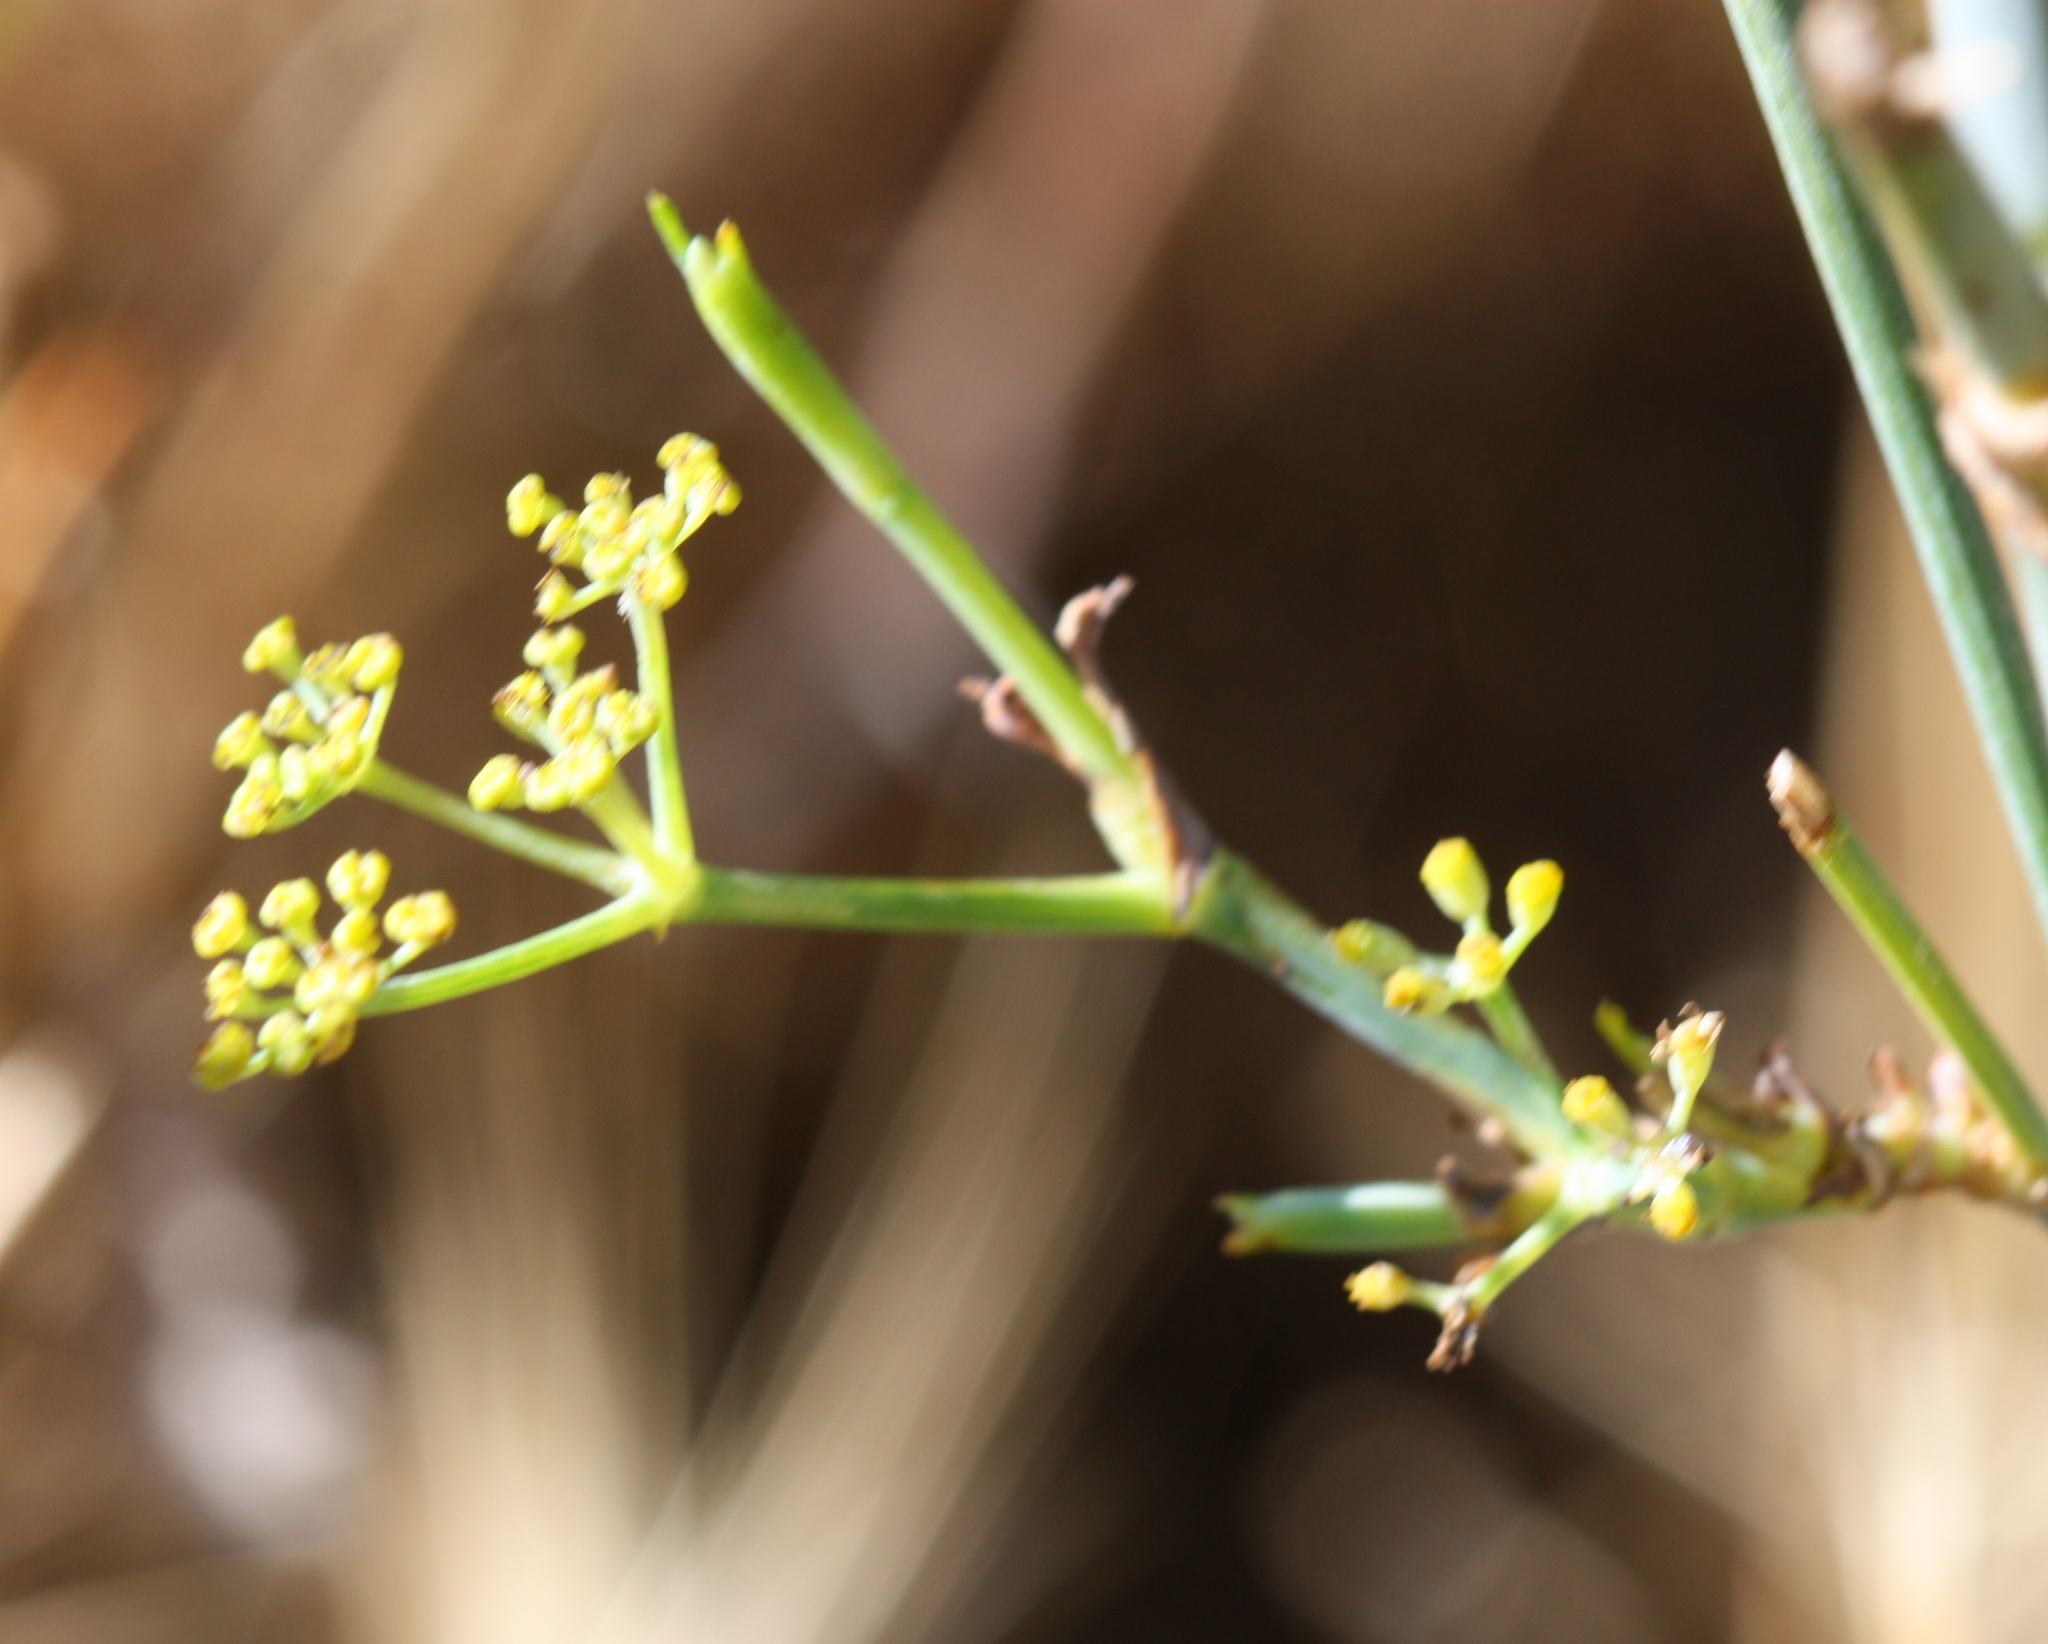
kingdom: Plantae
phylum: Tracheophyta
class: Magnoliopsida
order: Apiales
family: Apiaceae
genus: Foeniculum
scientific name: Foeniculum vulgare
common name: Fennel
